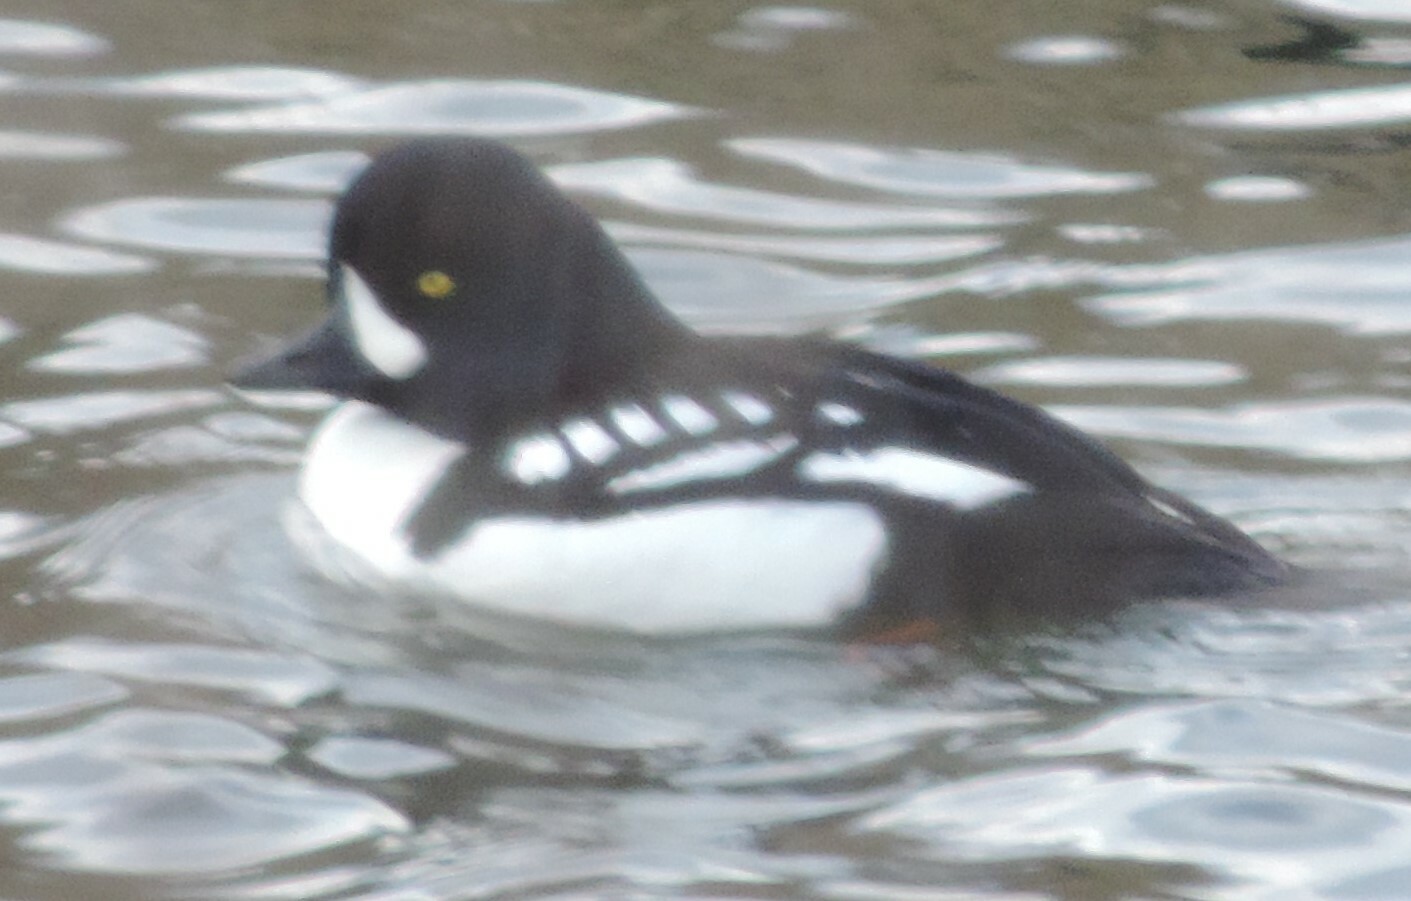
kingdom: Animalia
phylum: Chordata
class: Aves
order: Anseriformes
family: Anatidae
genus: Bucephala
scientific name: Bucephala islandica
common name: Barrow's goldeneye
